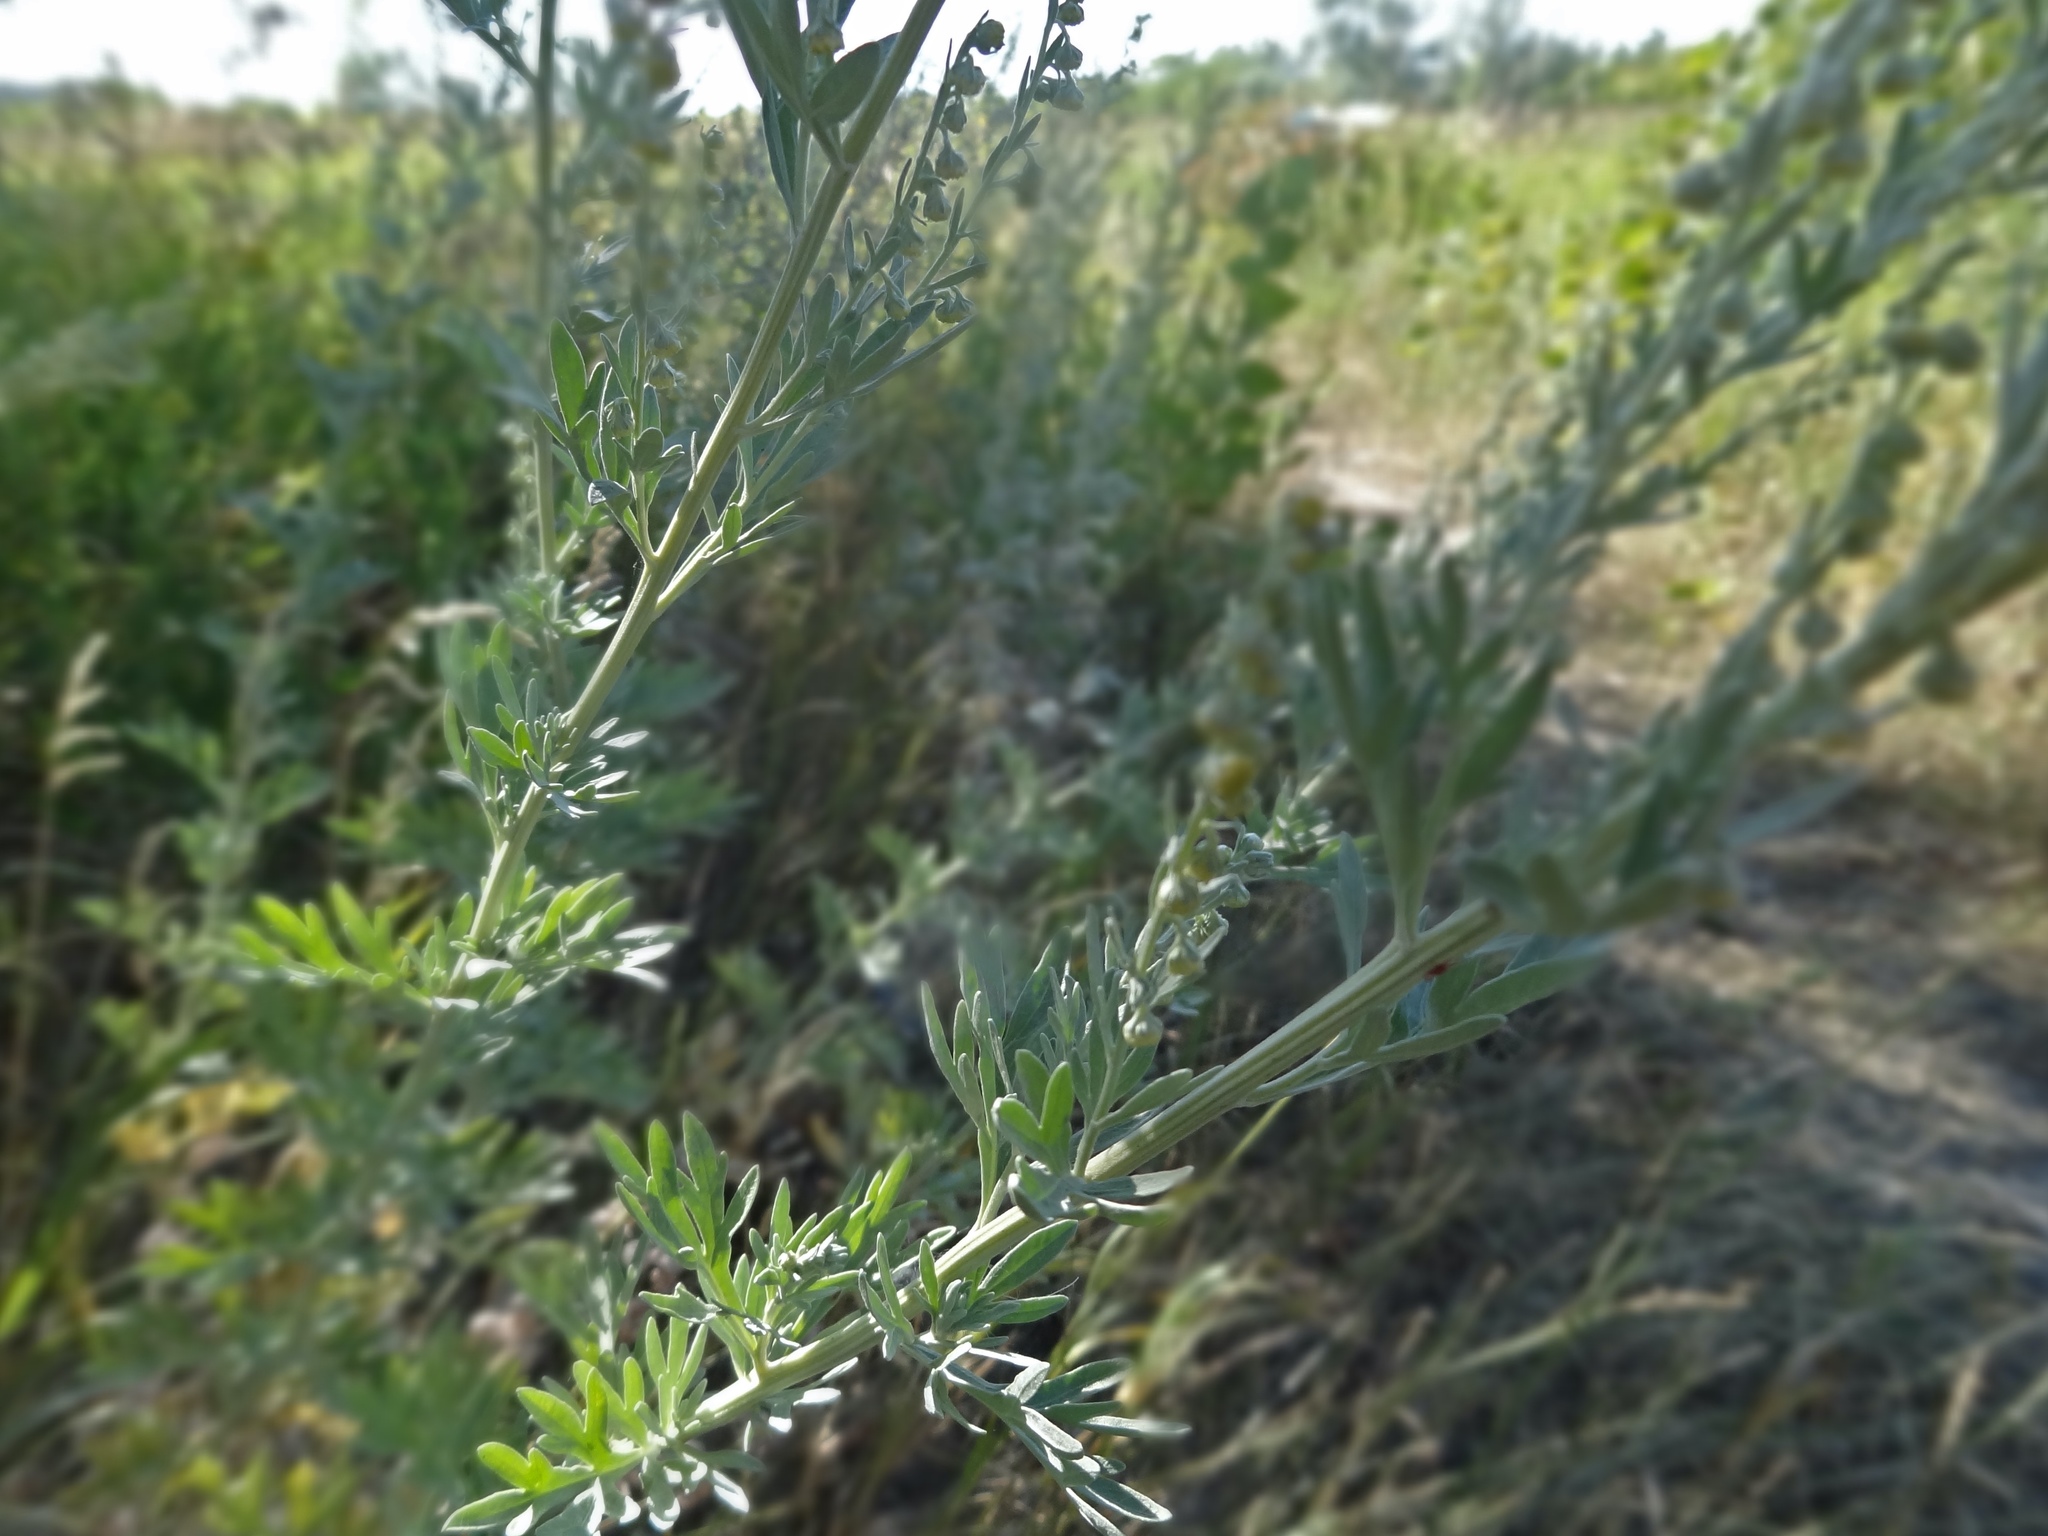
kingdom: Plantae
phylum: Tracheophyta
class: Magnoliopsida
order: Asterales
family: Asteraceae
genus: Artemisia
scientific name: Artemisia absinthium
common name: Wormwood
